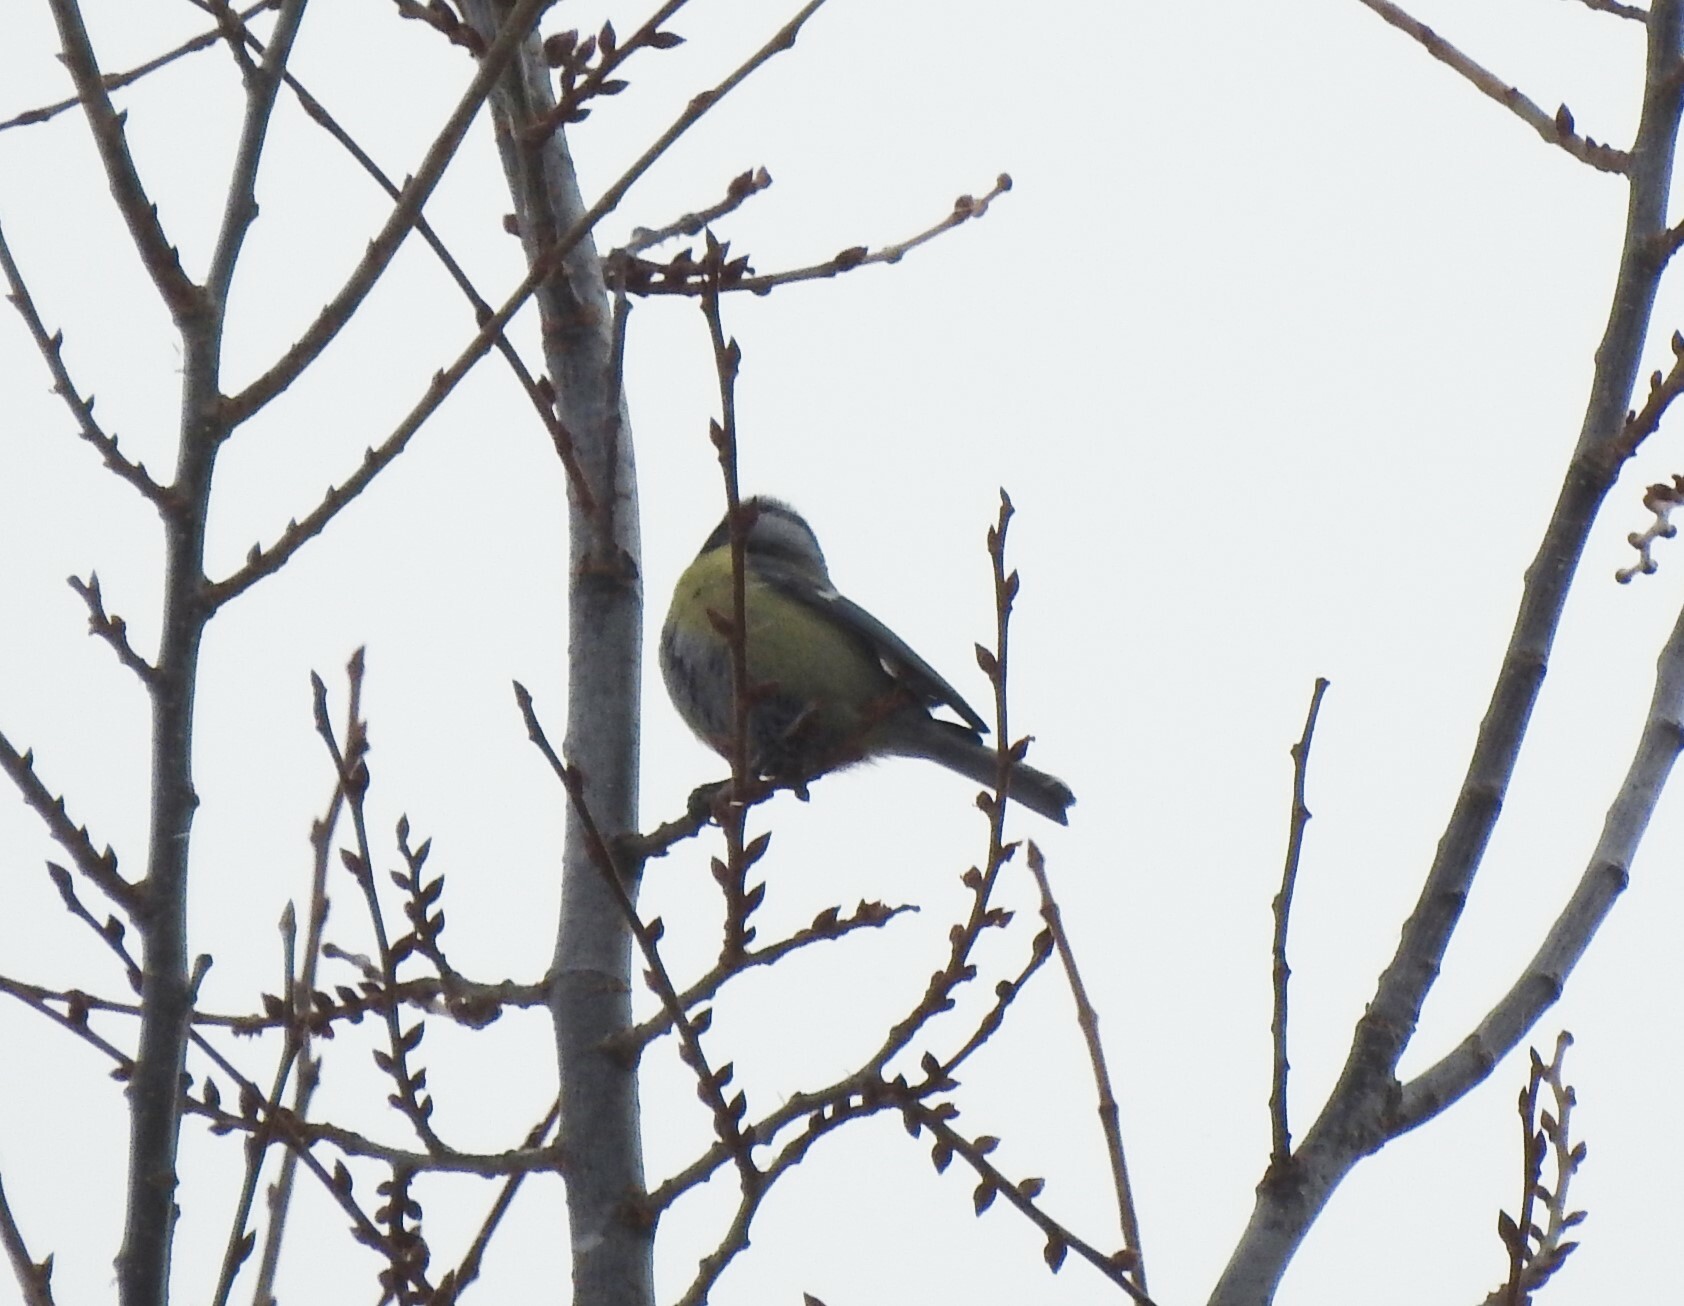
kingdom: Animalia
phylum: Chordata
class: Aves
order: Passeriformes
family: Paridae
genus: Cyanistes
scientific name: Cyanistes caeruleus
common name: Eurasian blue tit
